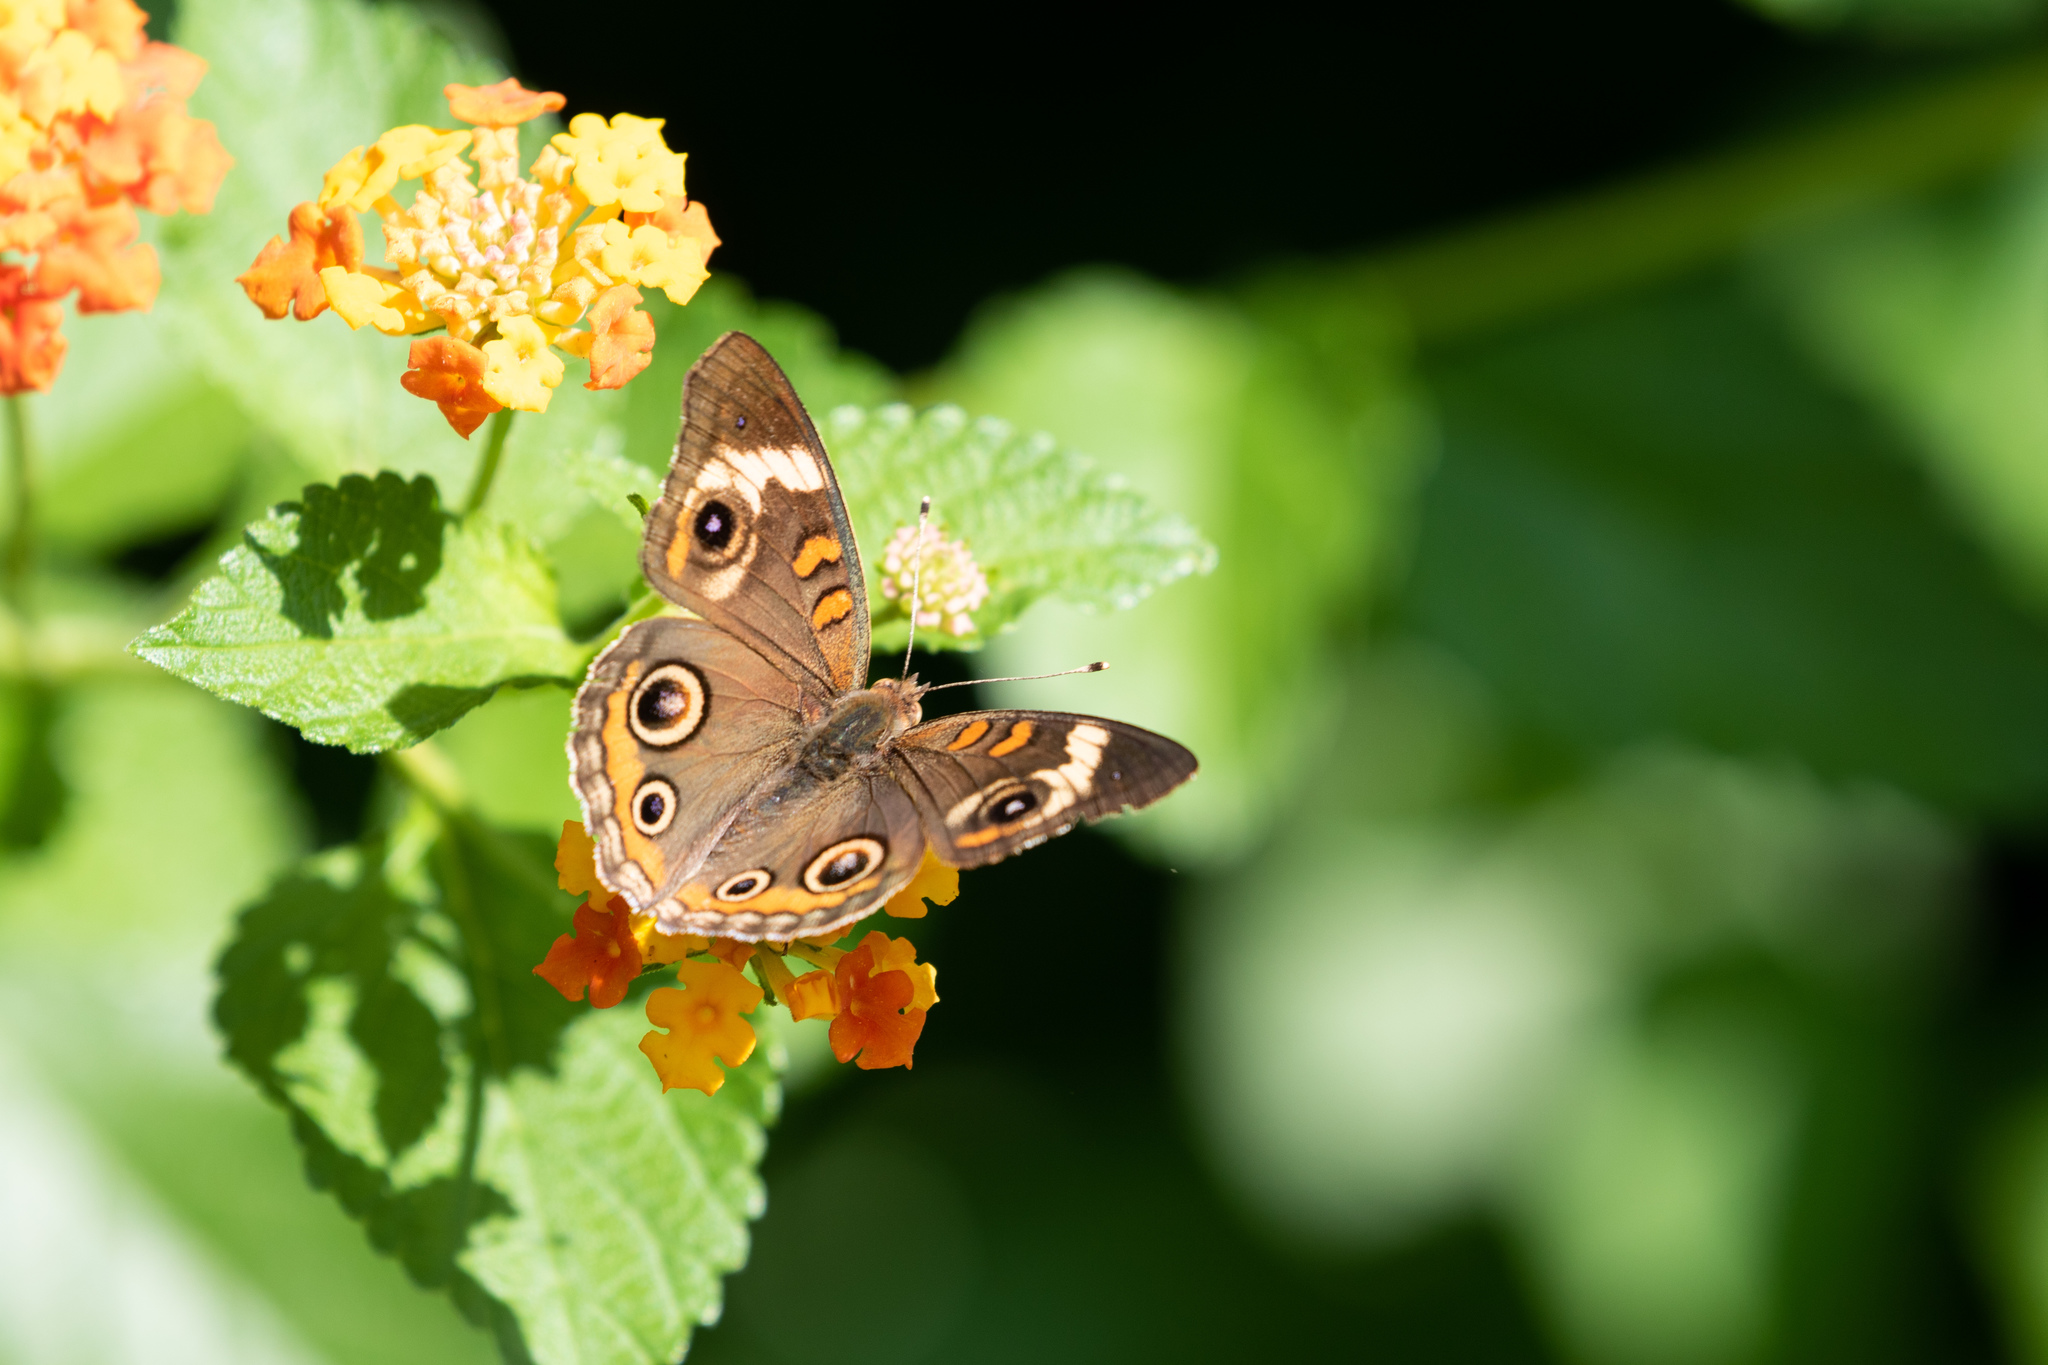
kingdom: Animalia
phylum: Arthropoda
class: Insecta
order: Lepidoptera
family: Nymphalidae
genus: Junonia
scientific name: Junonia coenia
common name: Common buckeye
